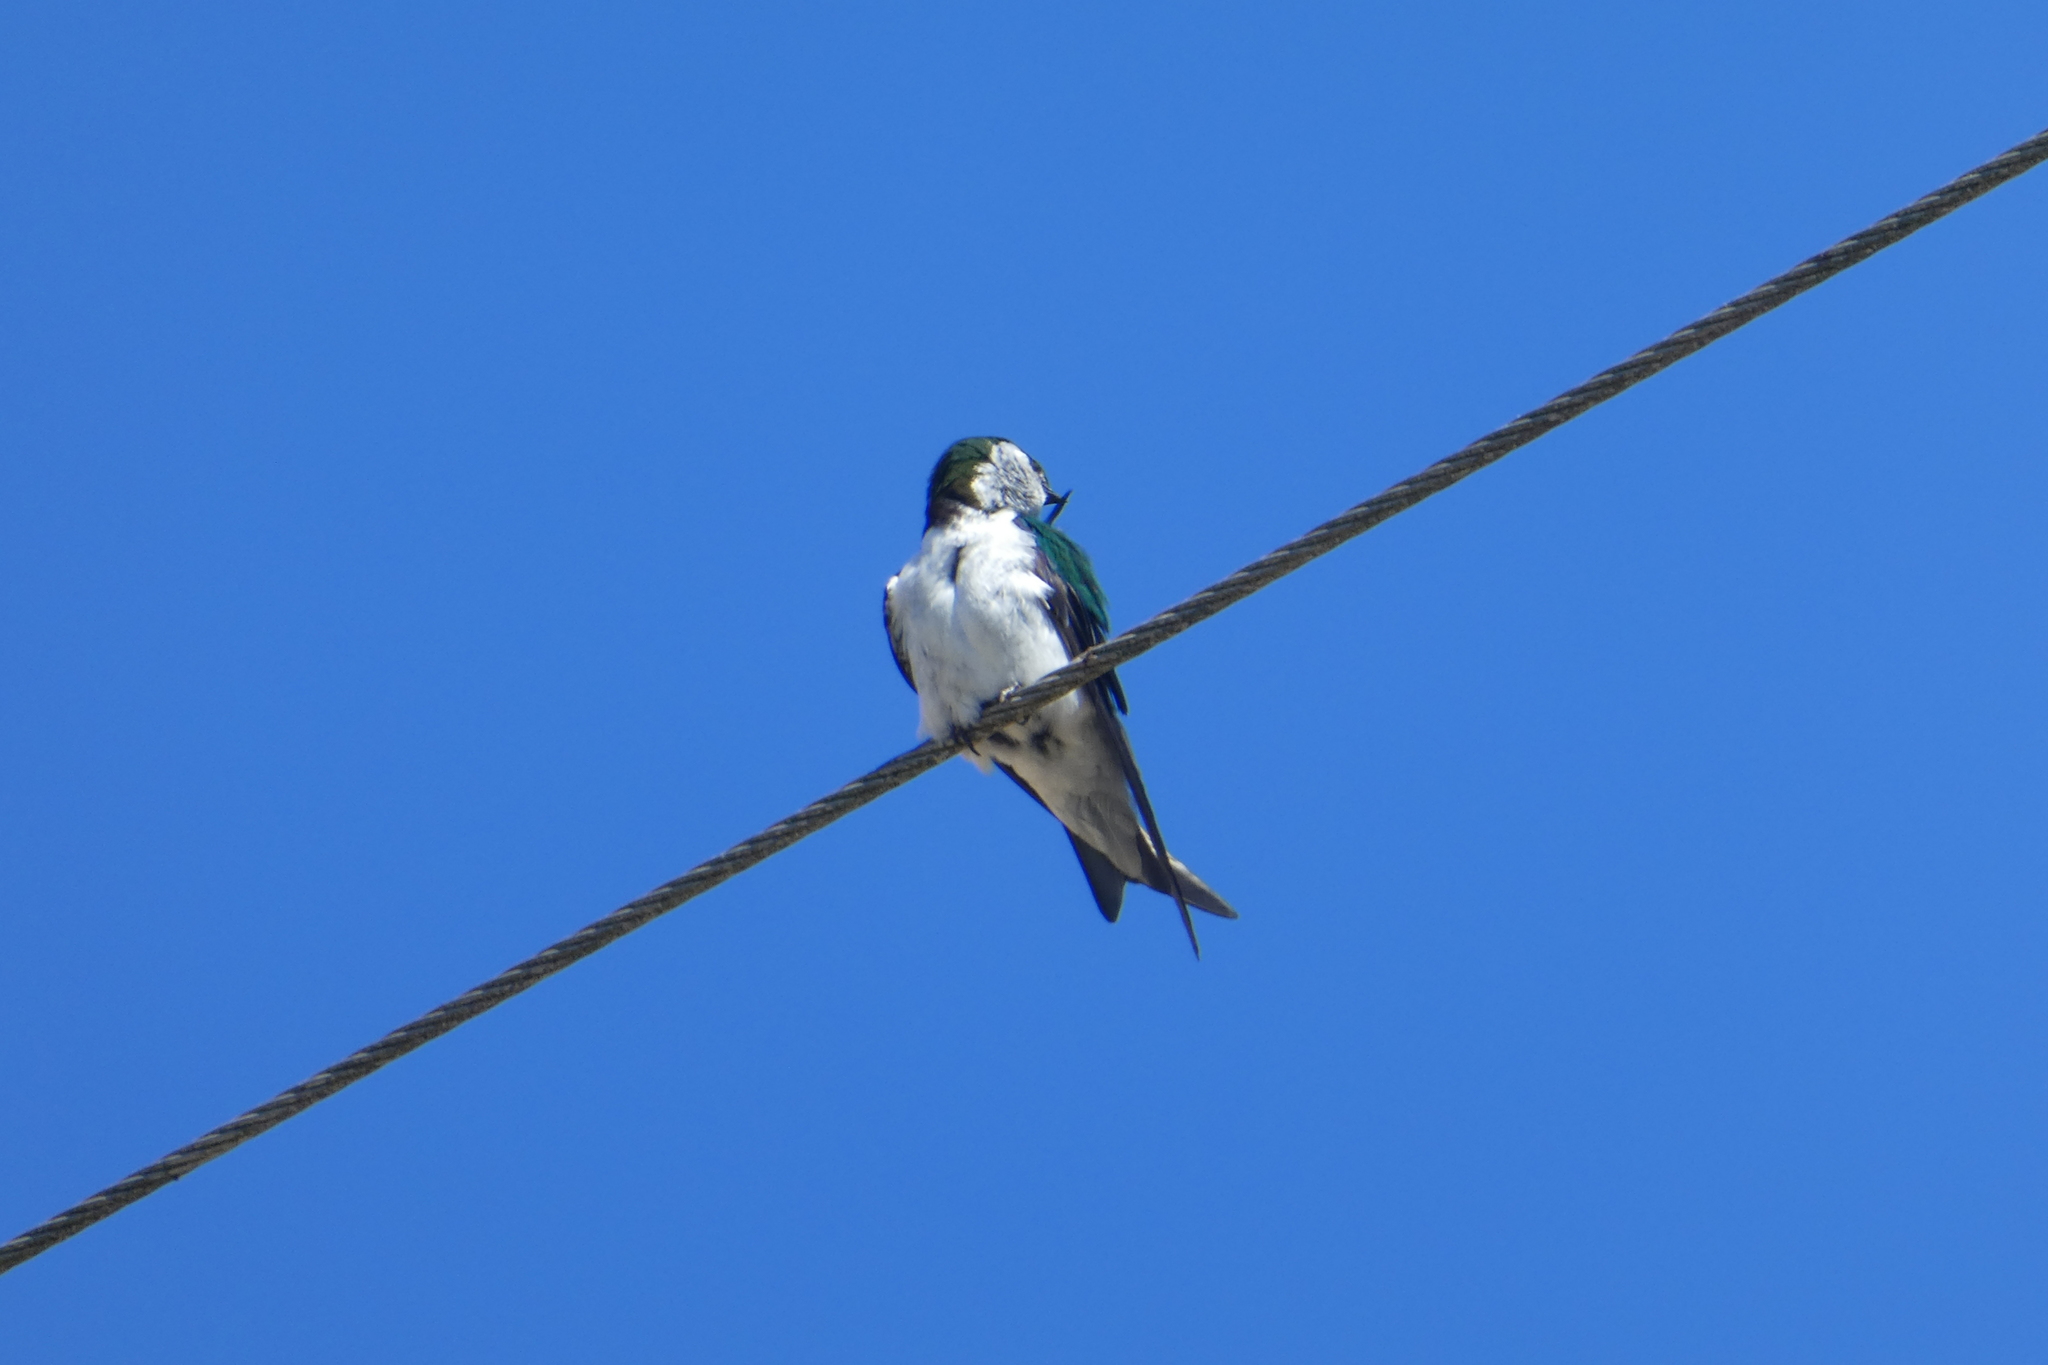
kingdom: Animalia
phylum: Chordata
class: Aves
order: Passeriformes
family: Hirundinidae
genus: Tachycineta
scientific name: Tachycineta thalassina
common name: Violet-green swallow
